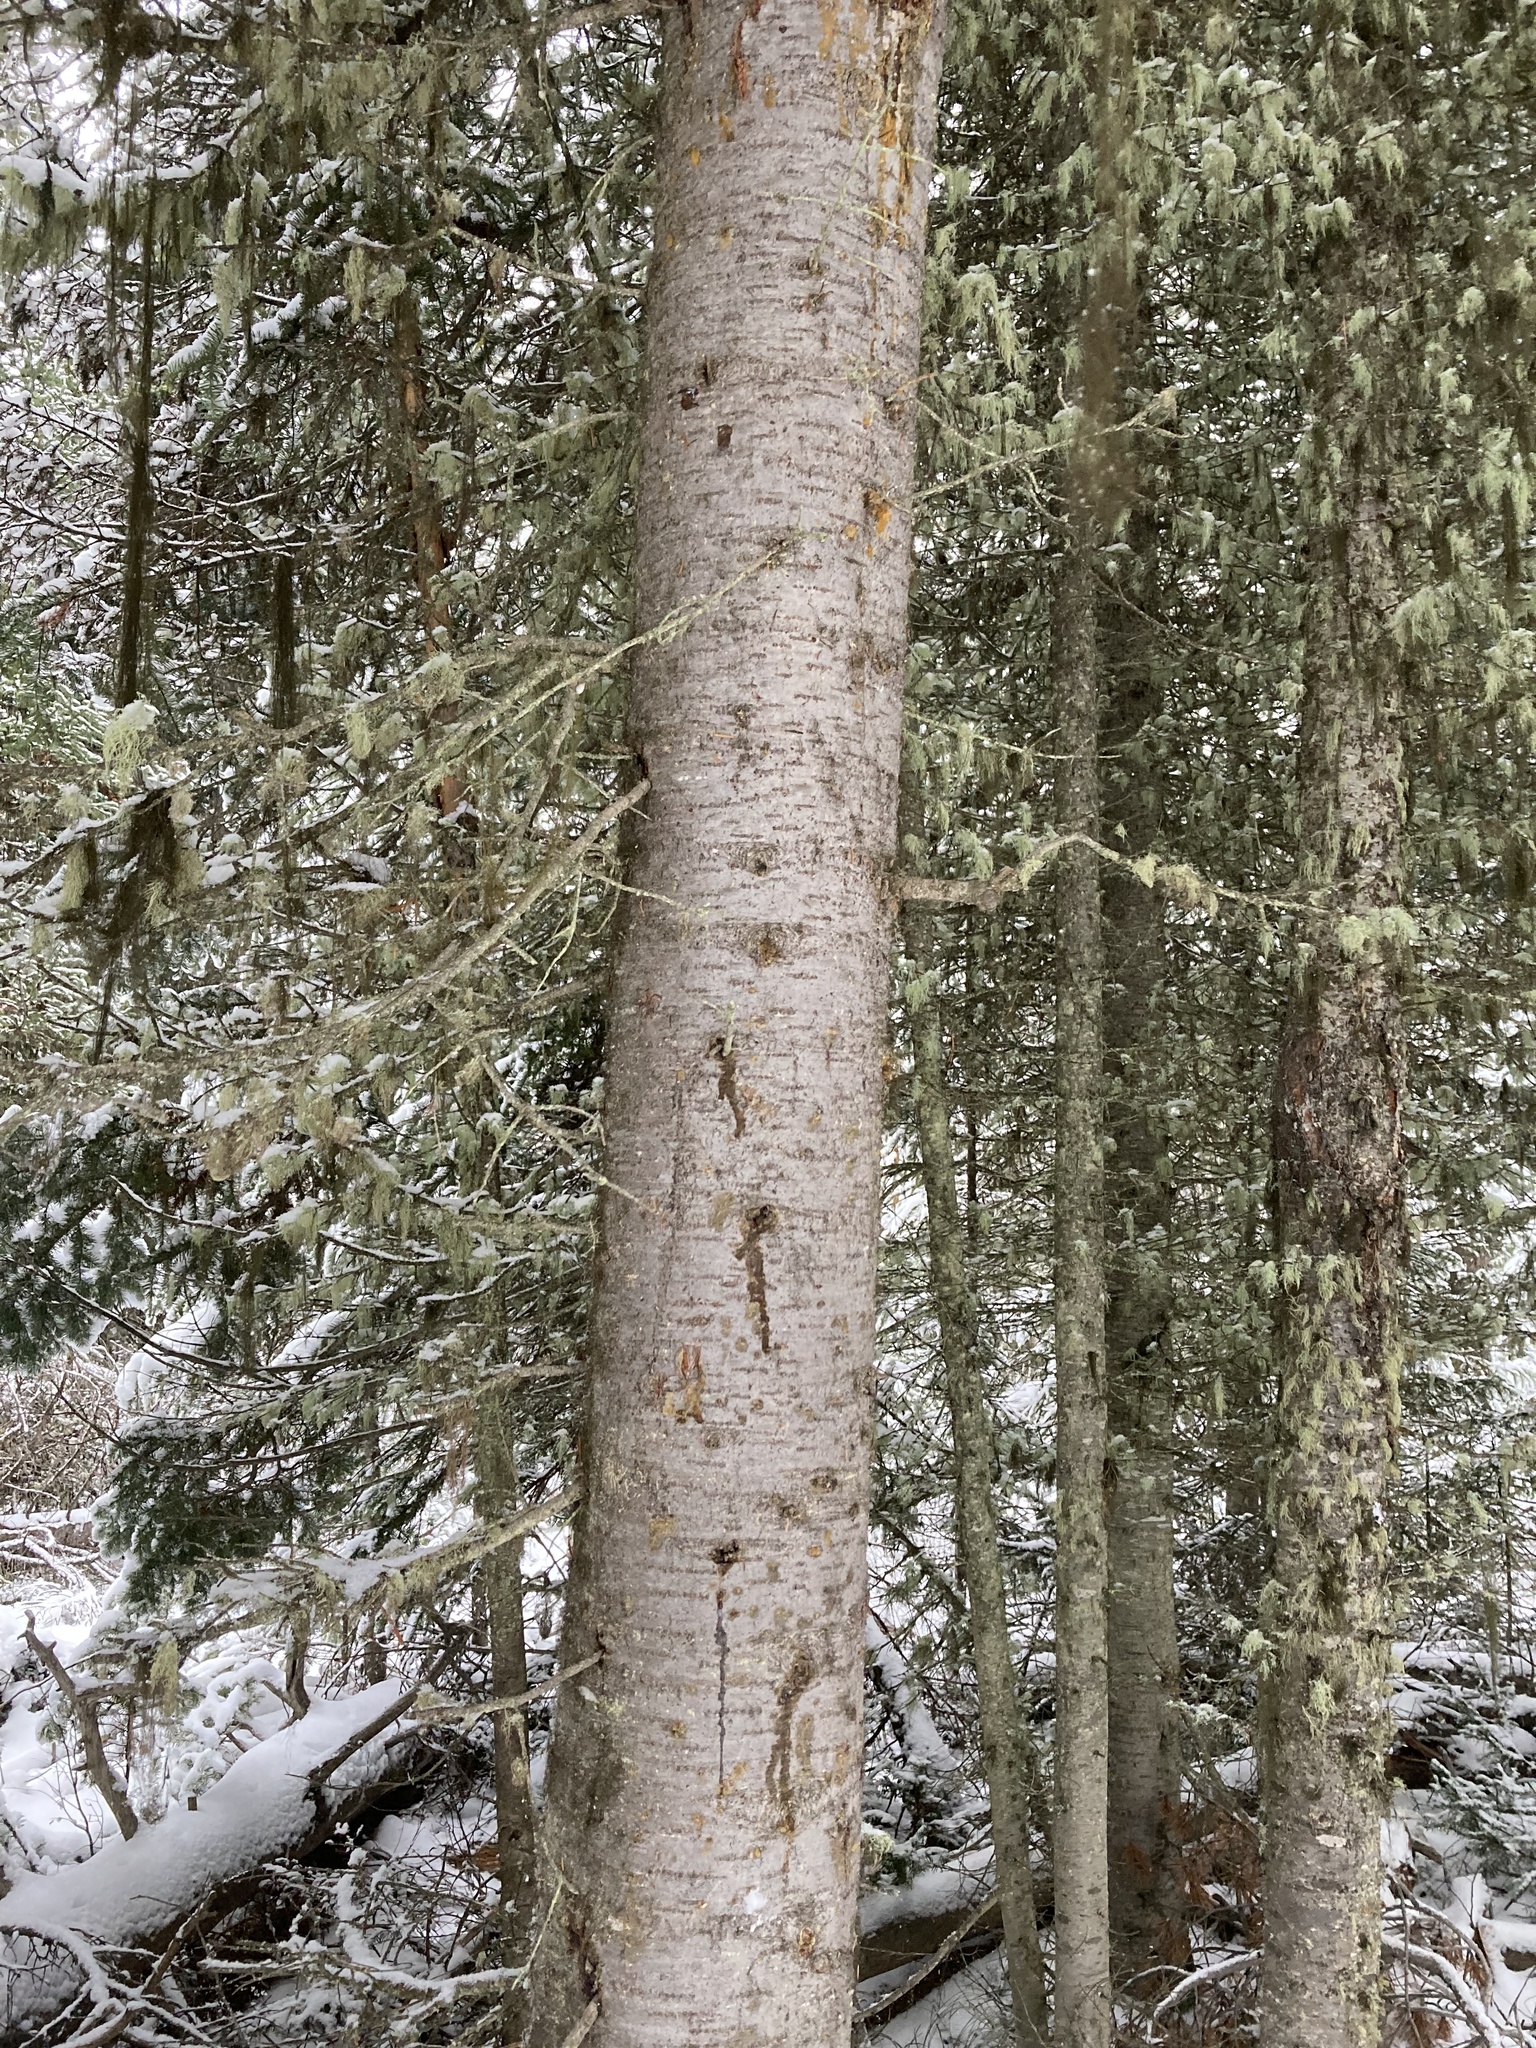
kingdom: Plantae
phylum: Tracheophyta
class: Pinopsida
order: Pinales
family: Pinaceae
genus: Abies
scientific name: Abies lasiocarpa
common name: Subalpine fir
